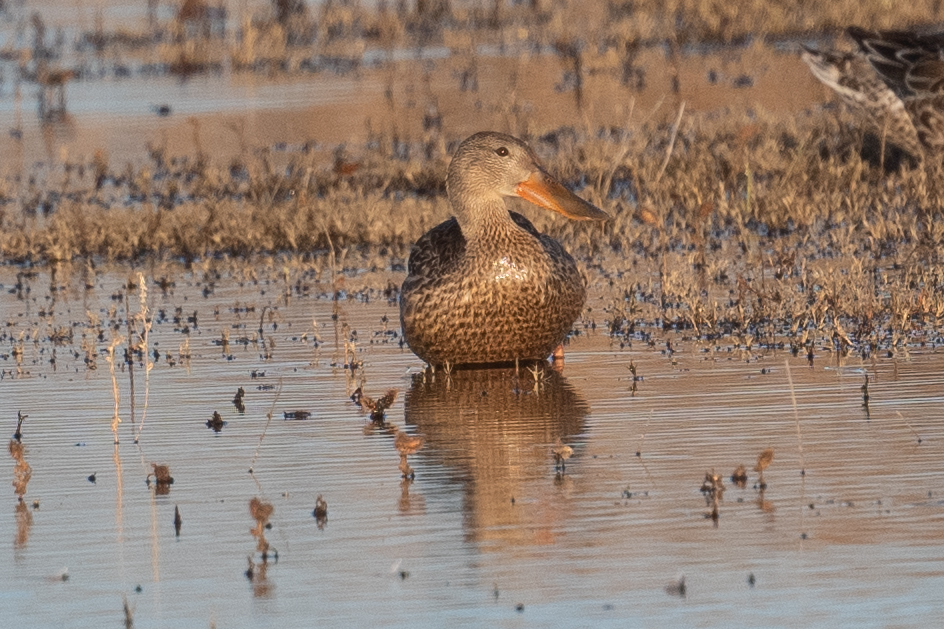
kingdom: Animalia
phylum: Chordata
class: Aves
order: Anseriformes
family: Anatidae
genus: Spatula
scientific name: Spatula clypeata
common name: Northern shoveler
